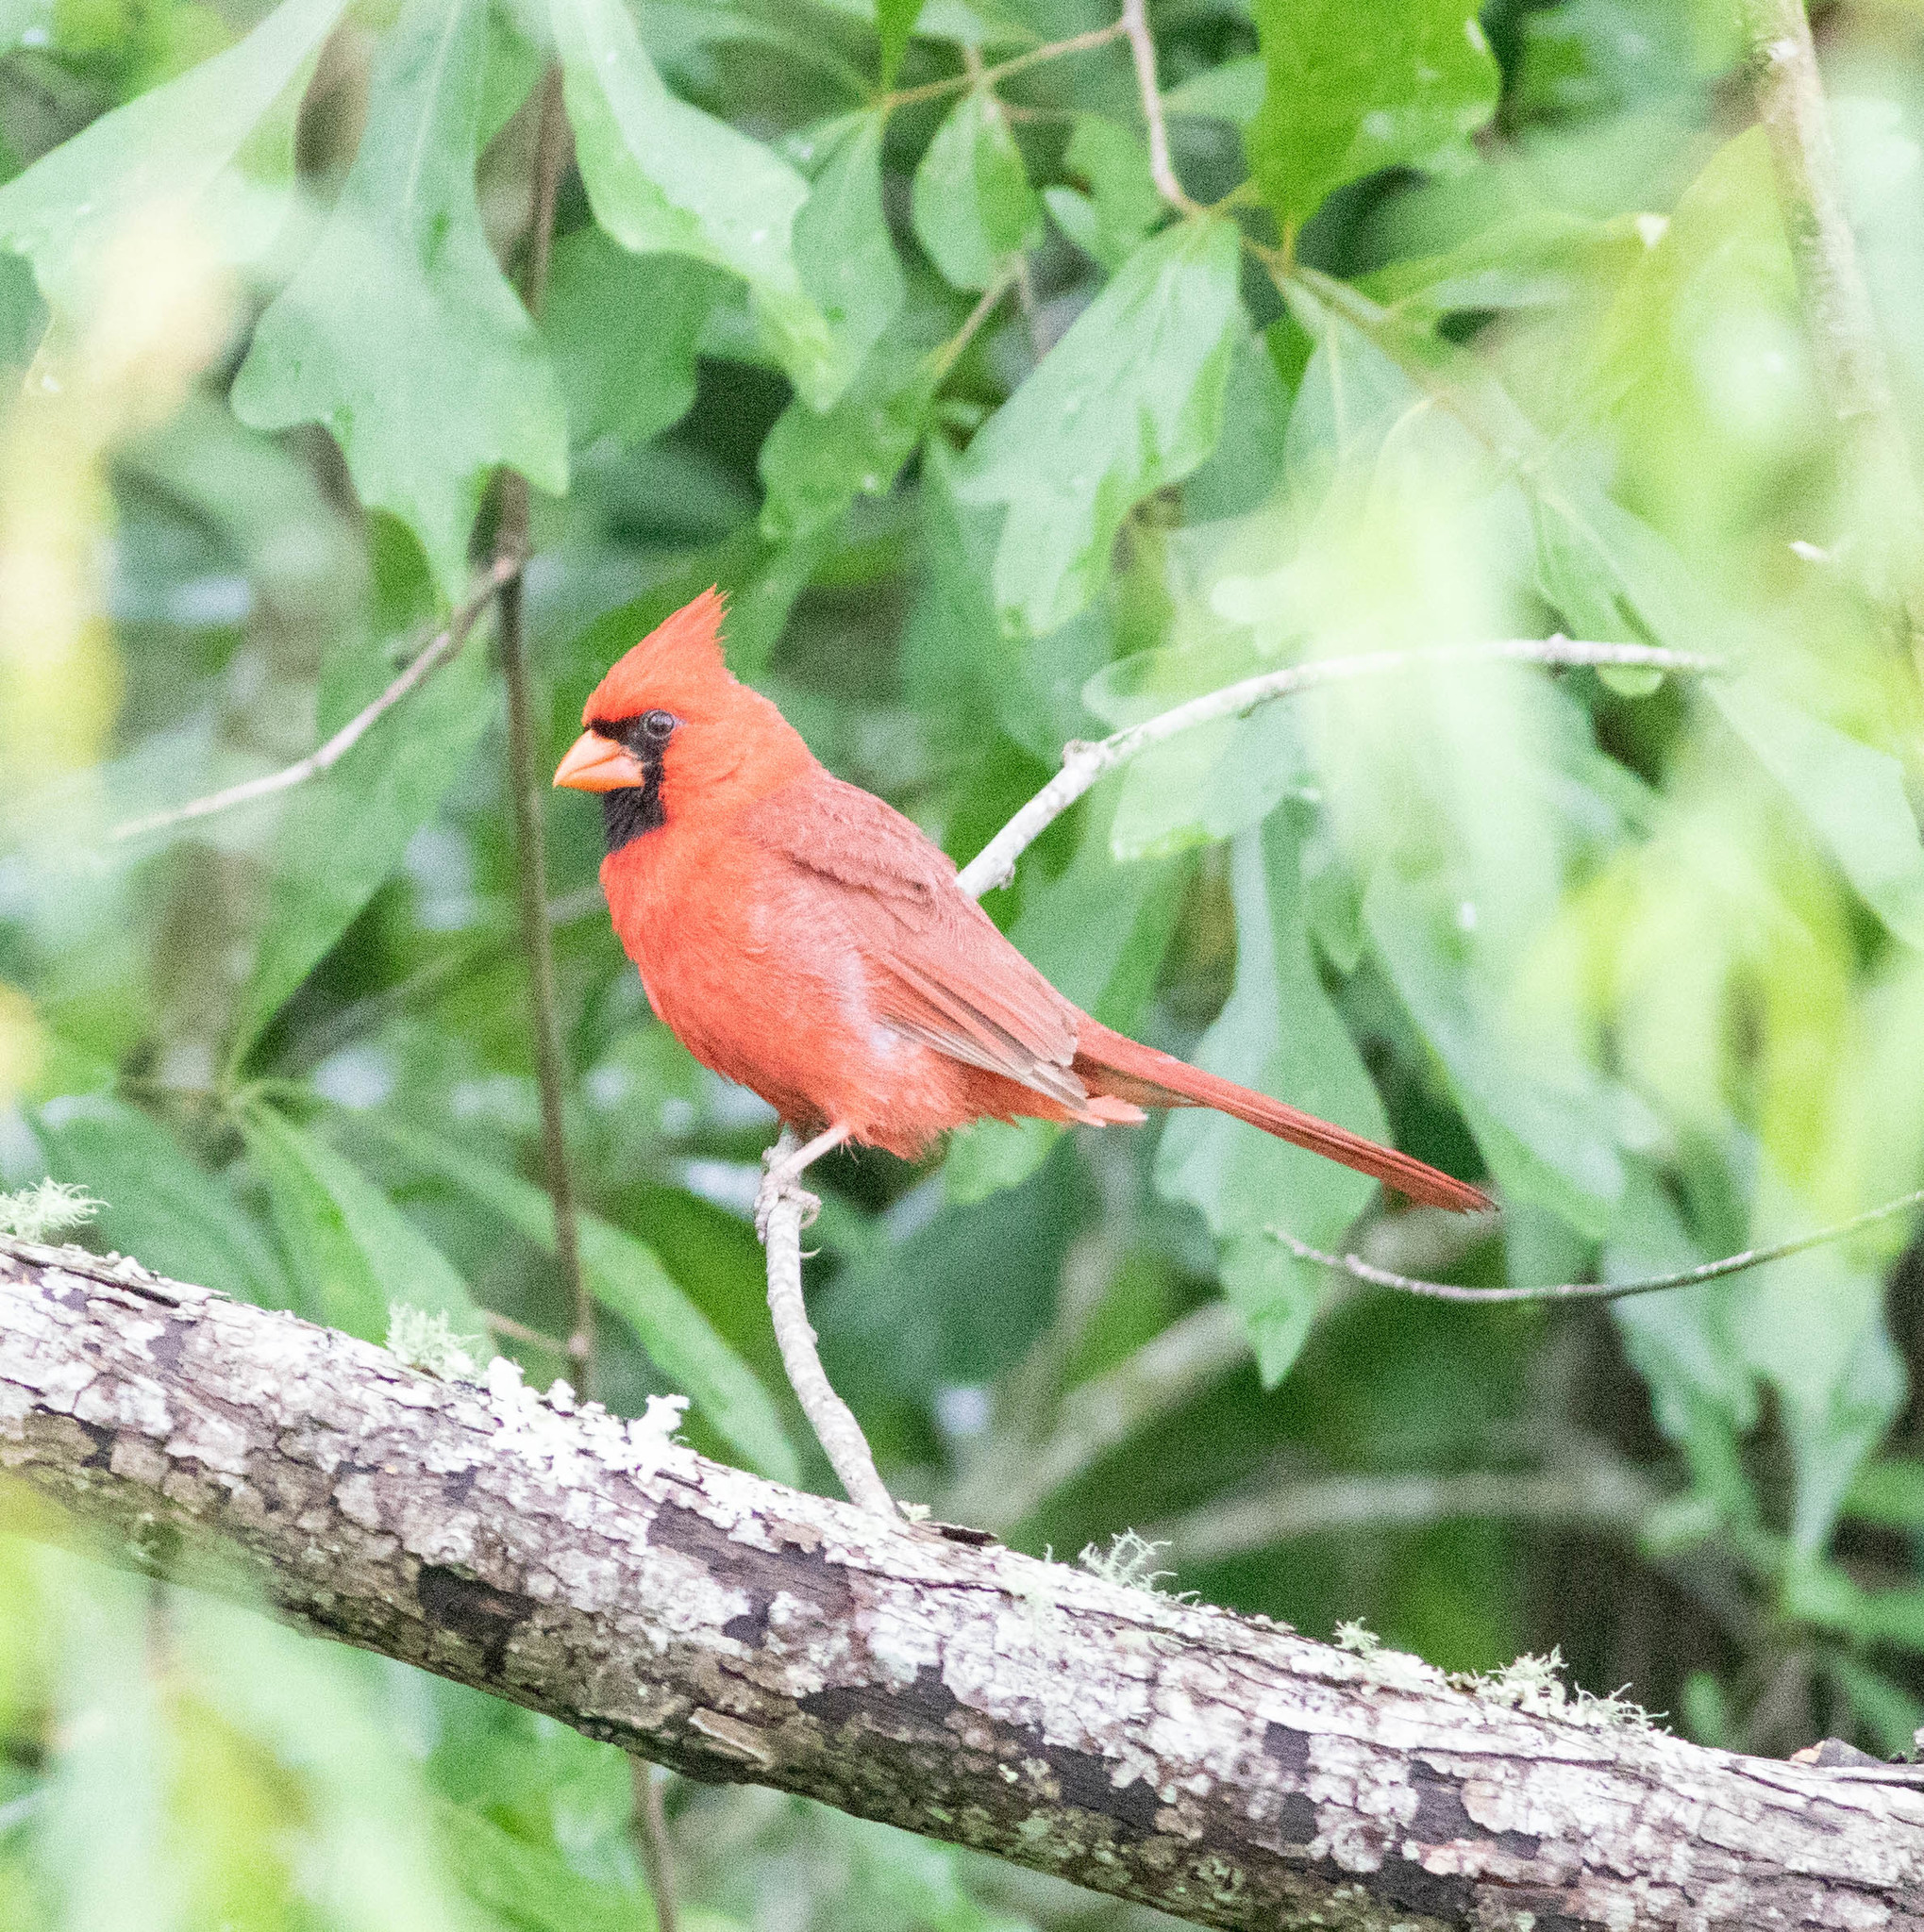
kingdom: Animalia
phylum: Chordata
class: Aves
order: Passeriformes
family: Cardinalidae
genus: Cardinalis
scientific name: Cardinalis cardinalis
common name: Northern cardinal
